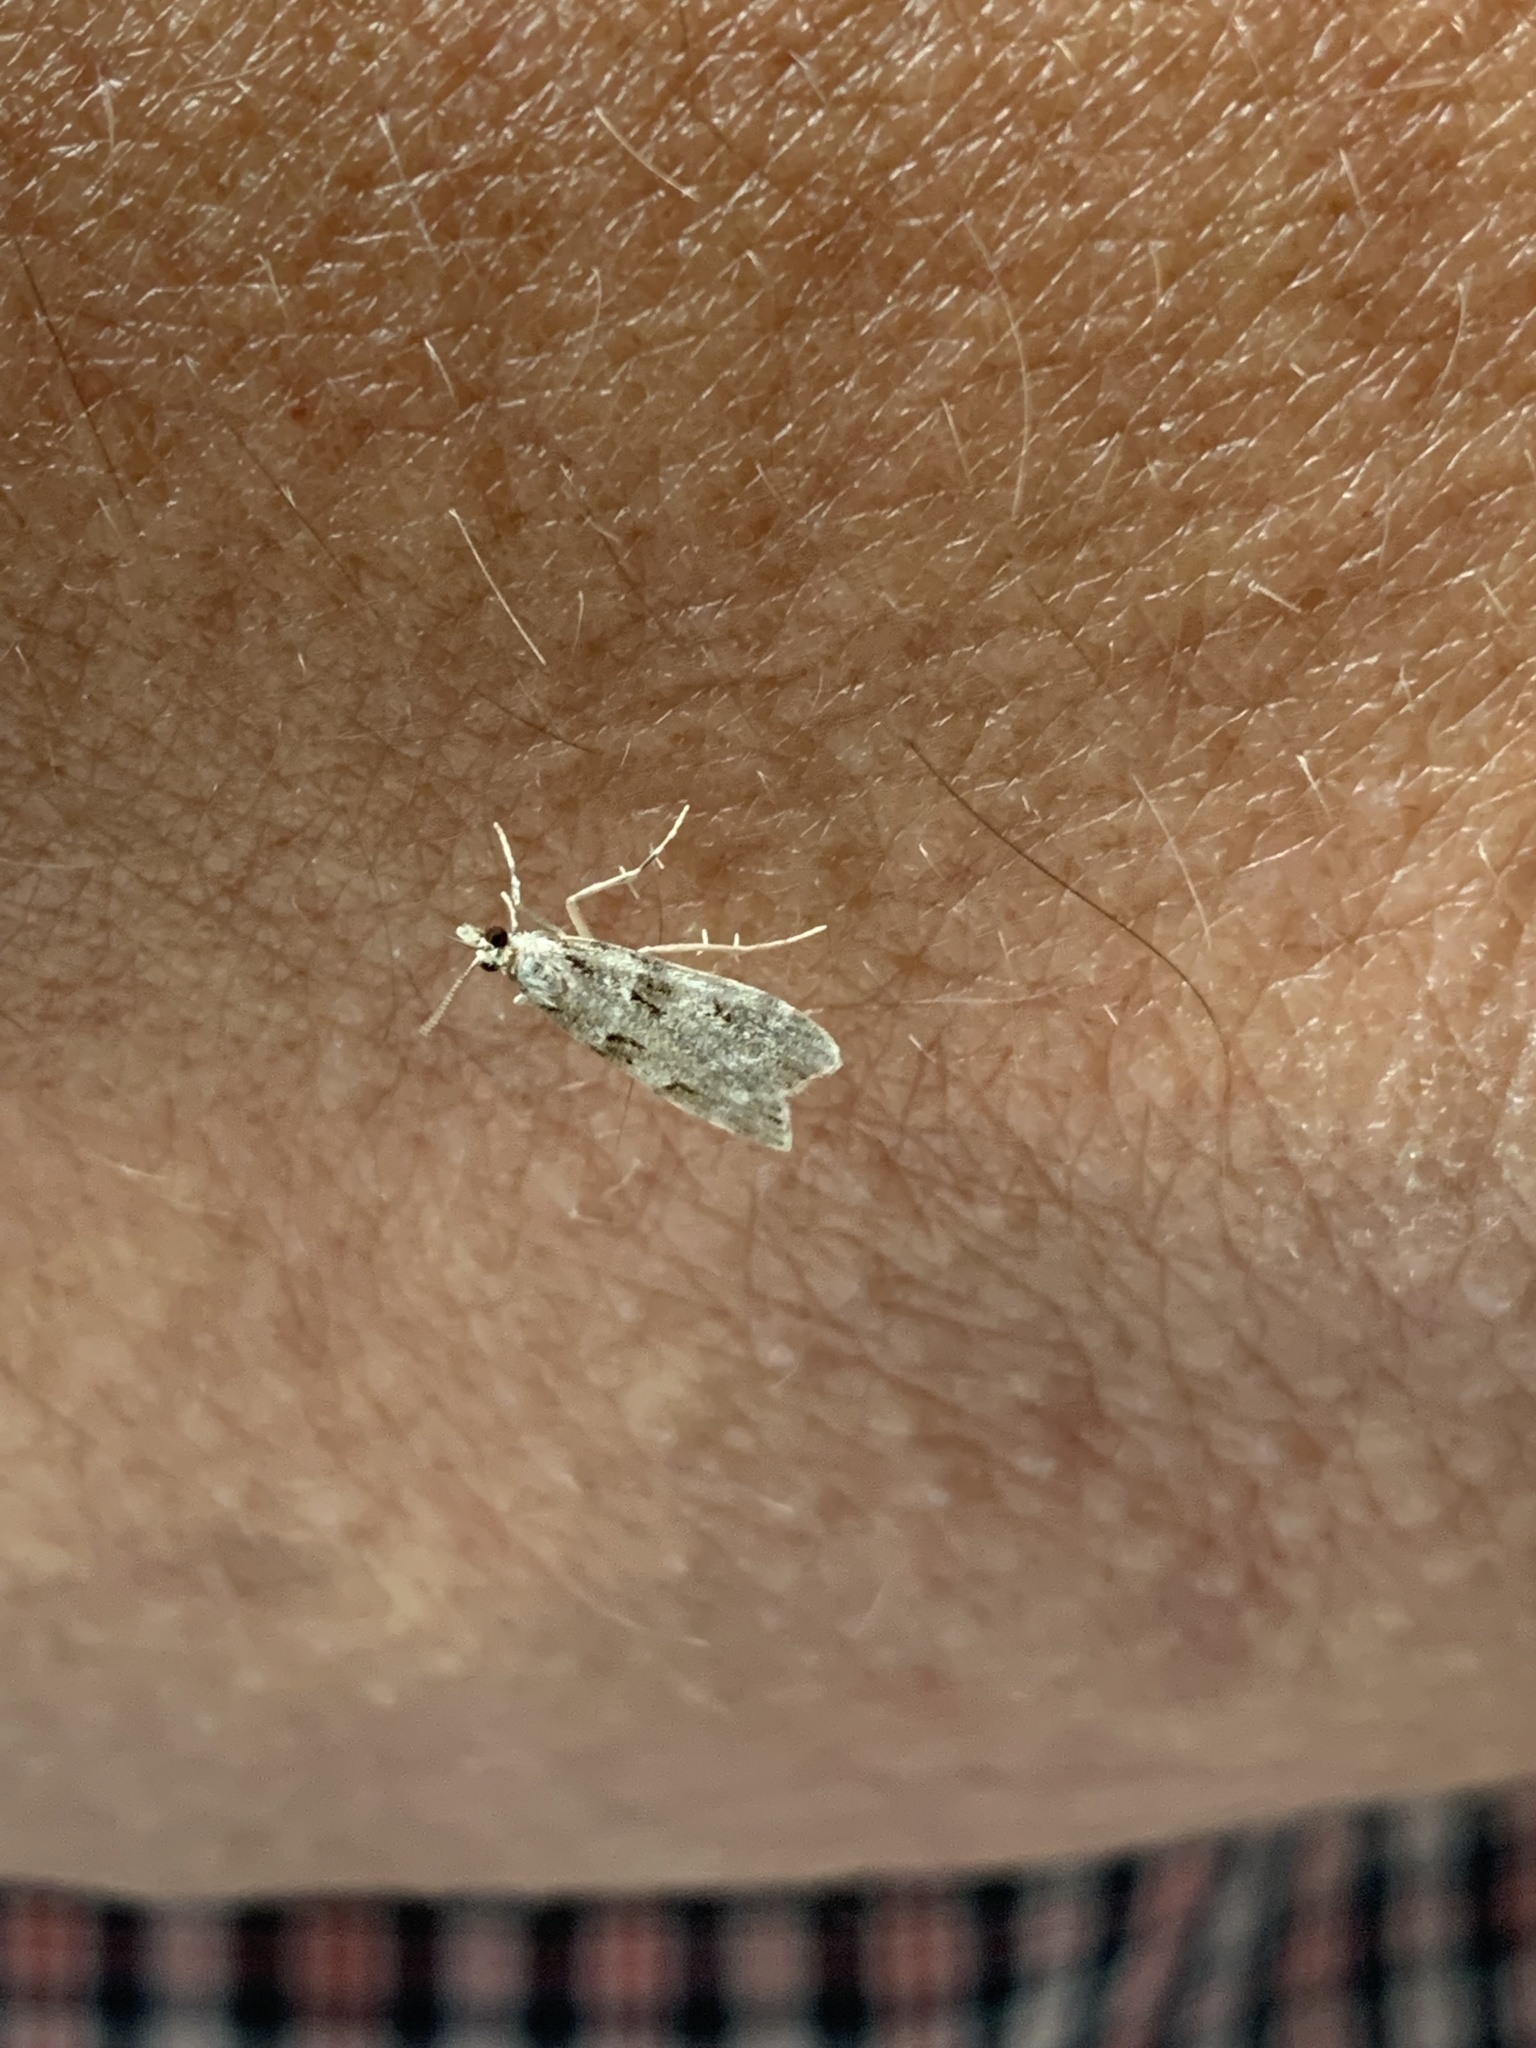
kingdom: Animalia
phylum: Arthropoda
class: Insecta
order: Lepidoptera
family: Crambidae
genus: Scoparia
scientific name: Scoparia biplagialis
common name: Double-striped scoparia moth
